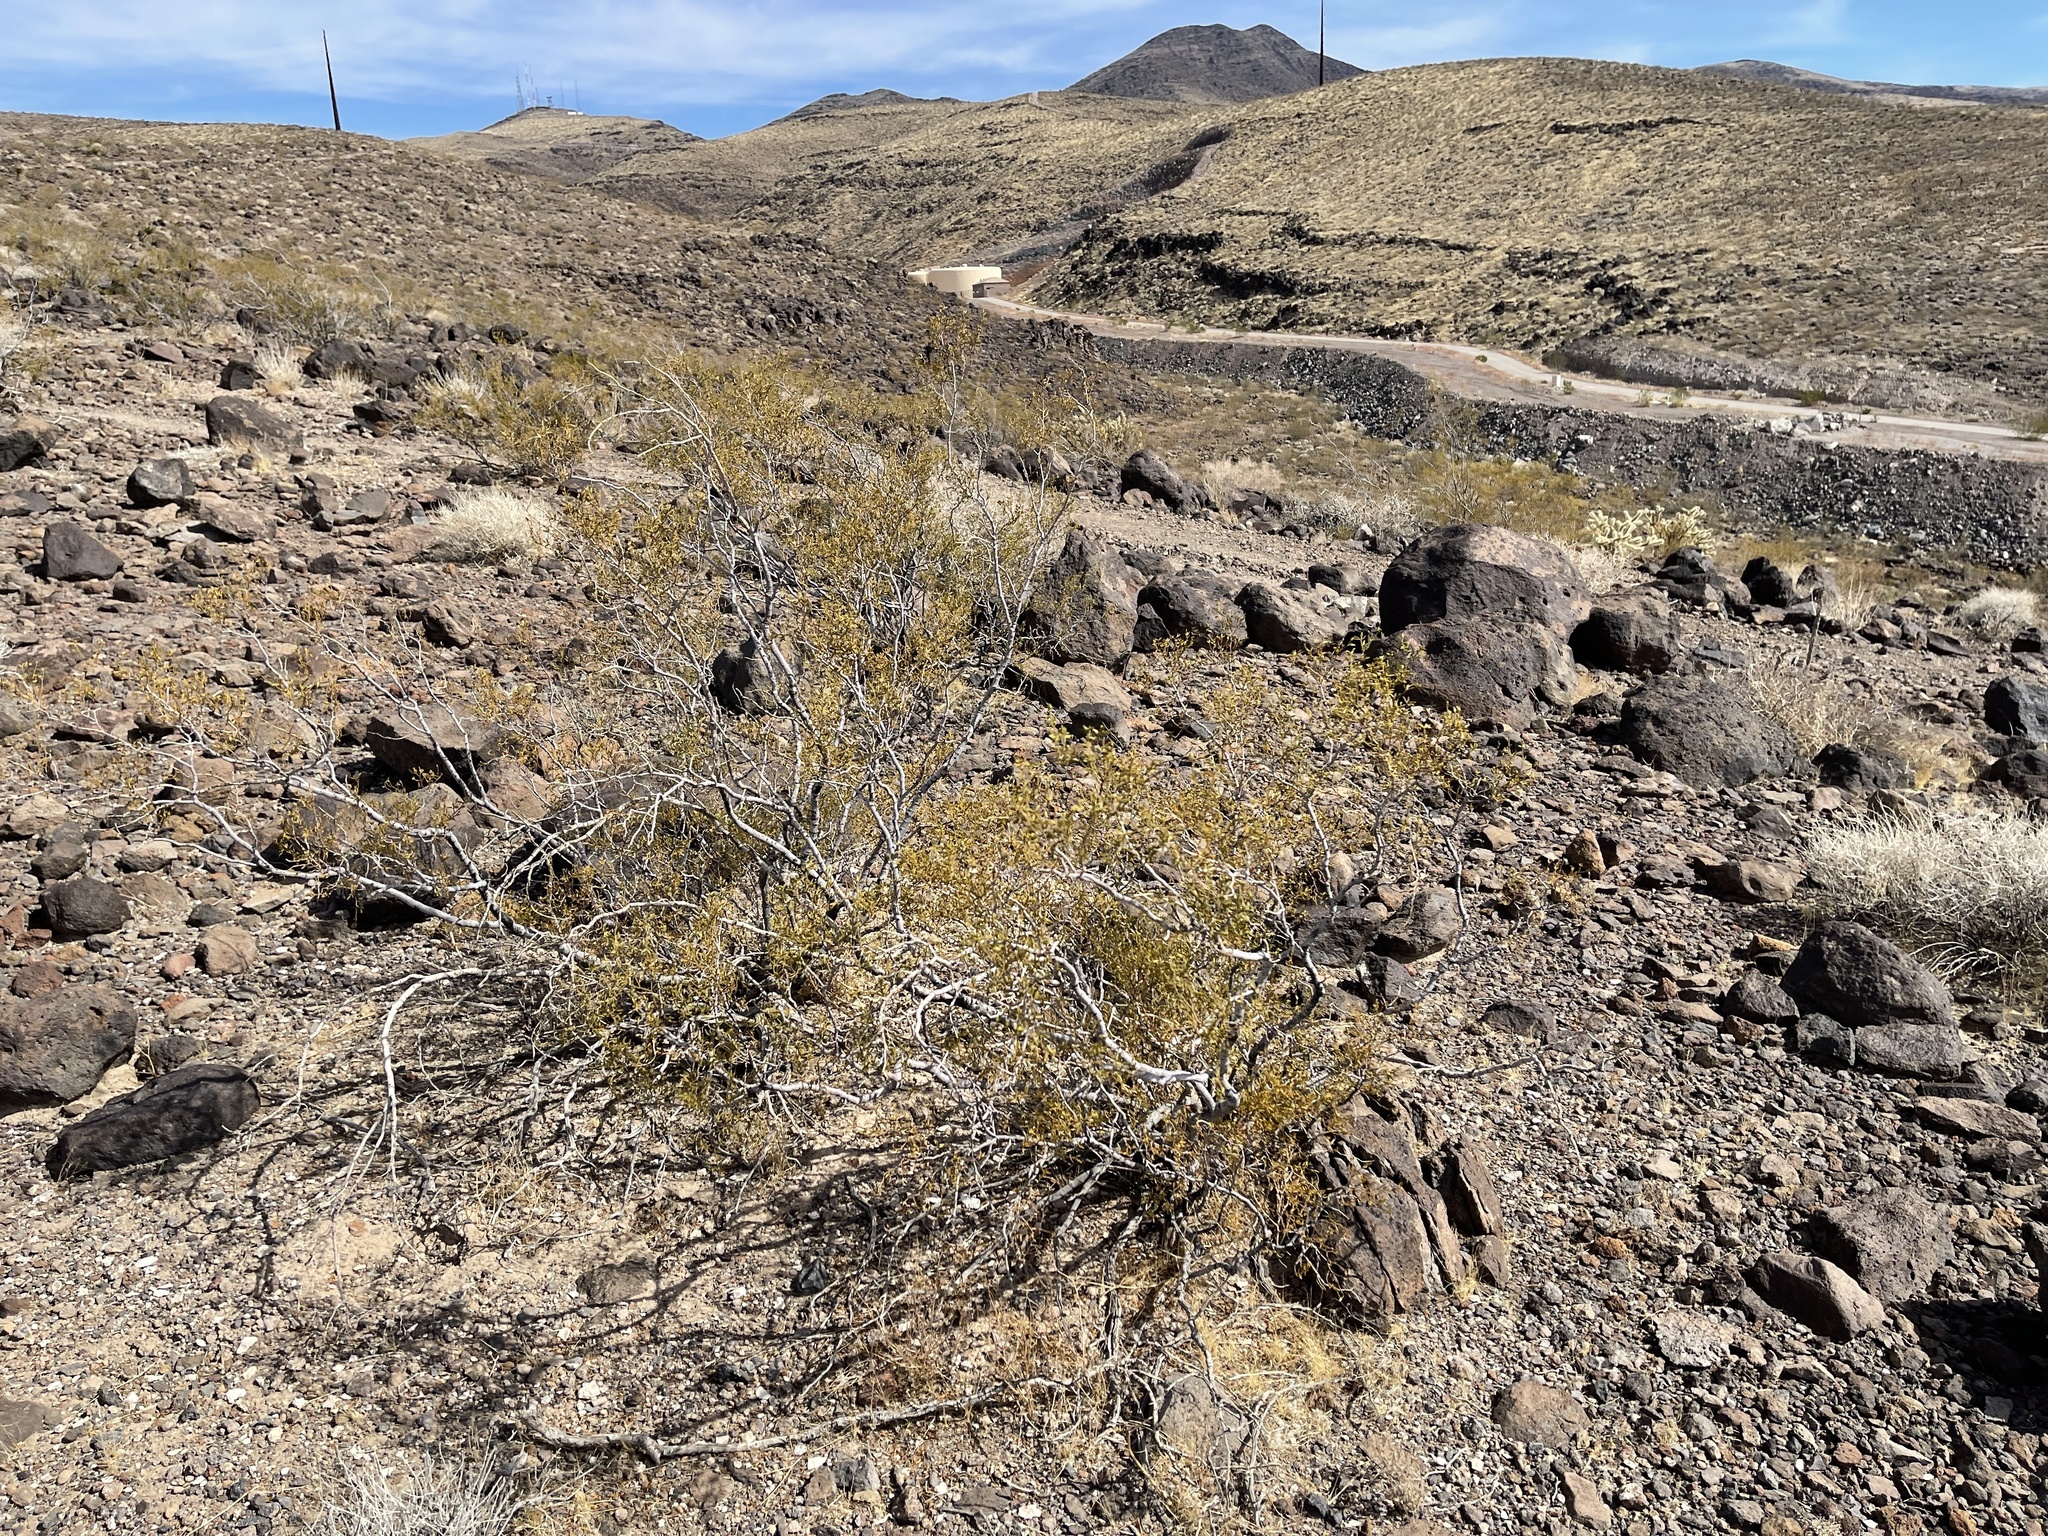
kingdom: Plantae
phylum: Tracheophyta
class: Magnoliopsida
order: Zygophyllales
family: Zygophyllaceae
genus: Larrea
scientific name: Larrea tridentata
